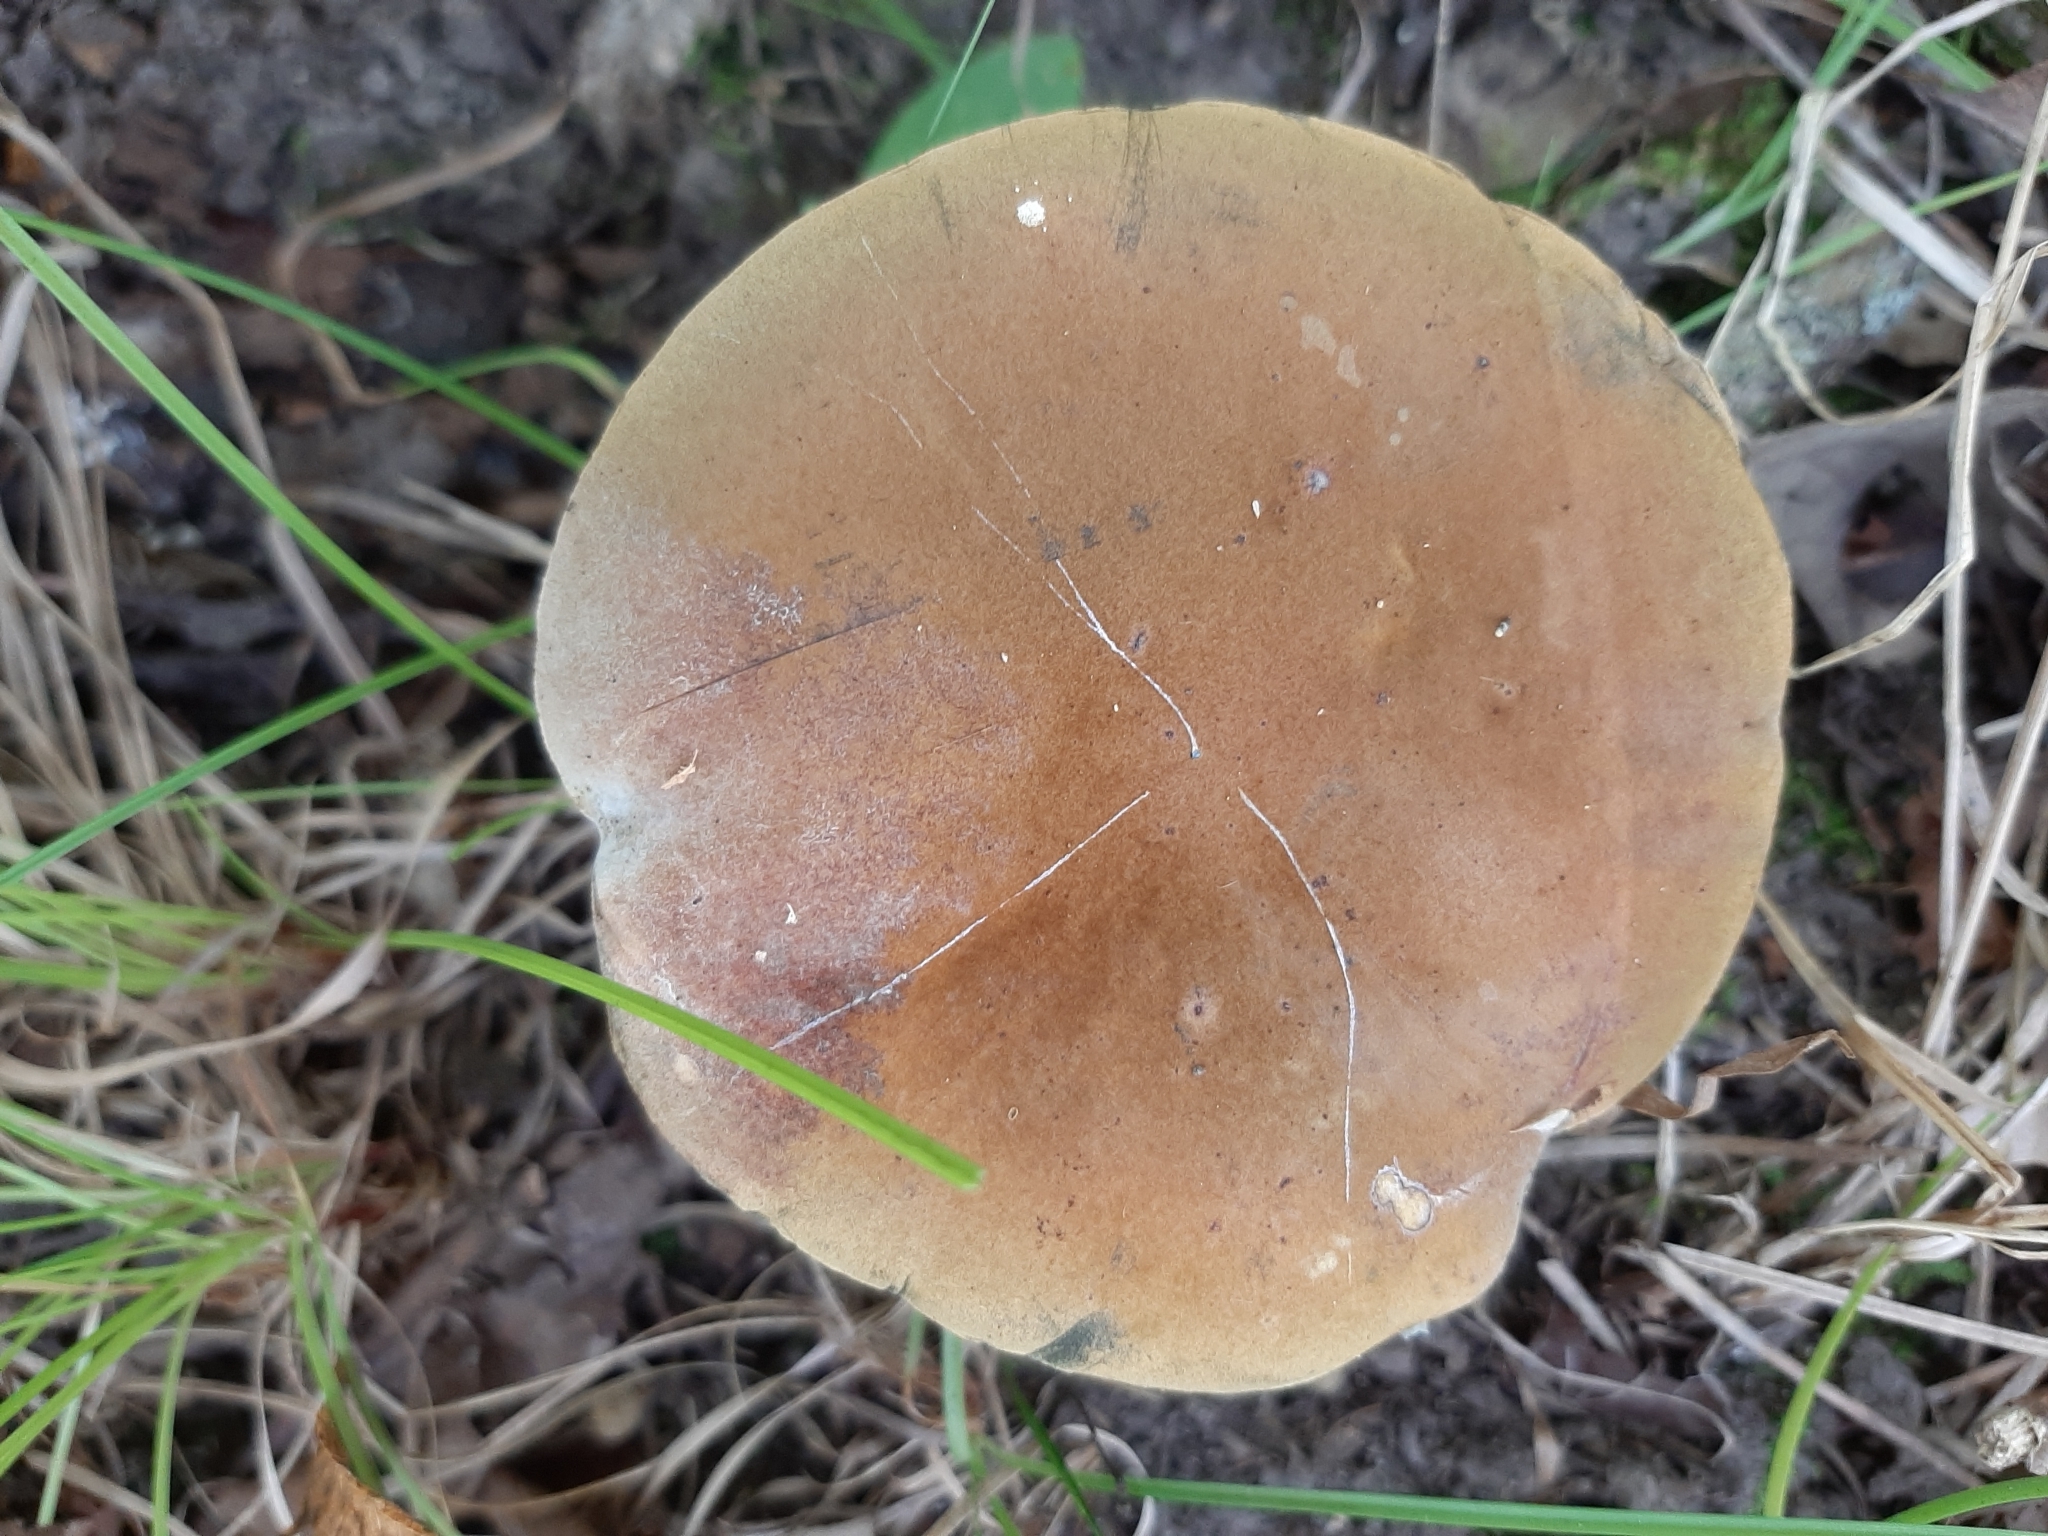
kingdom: Fungi
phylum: Basidiomycota
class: Agaricomycetes
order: Boletales
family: Boletaceae
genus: Cyanoboletus
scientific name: Cyanoboletus cyaneitinctus
